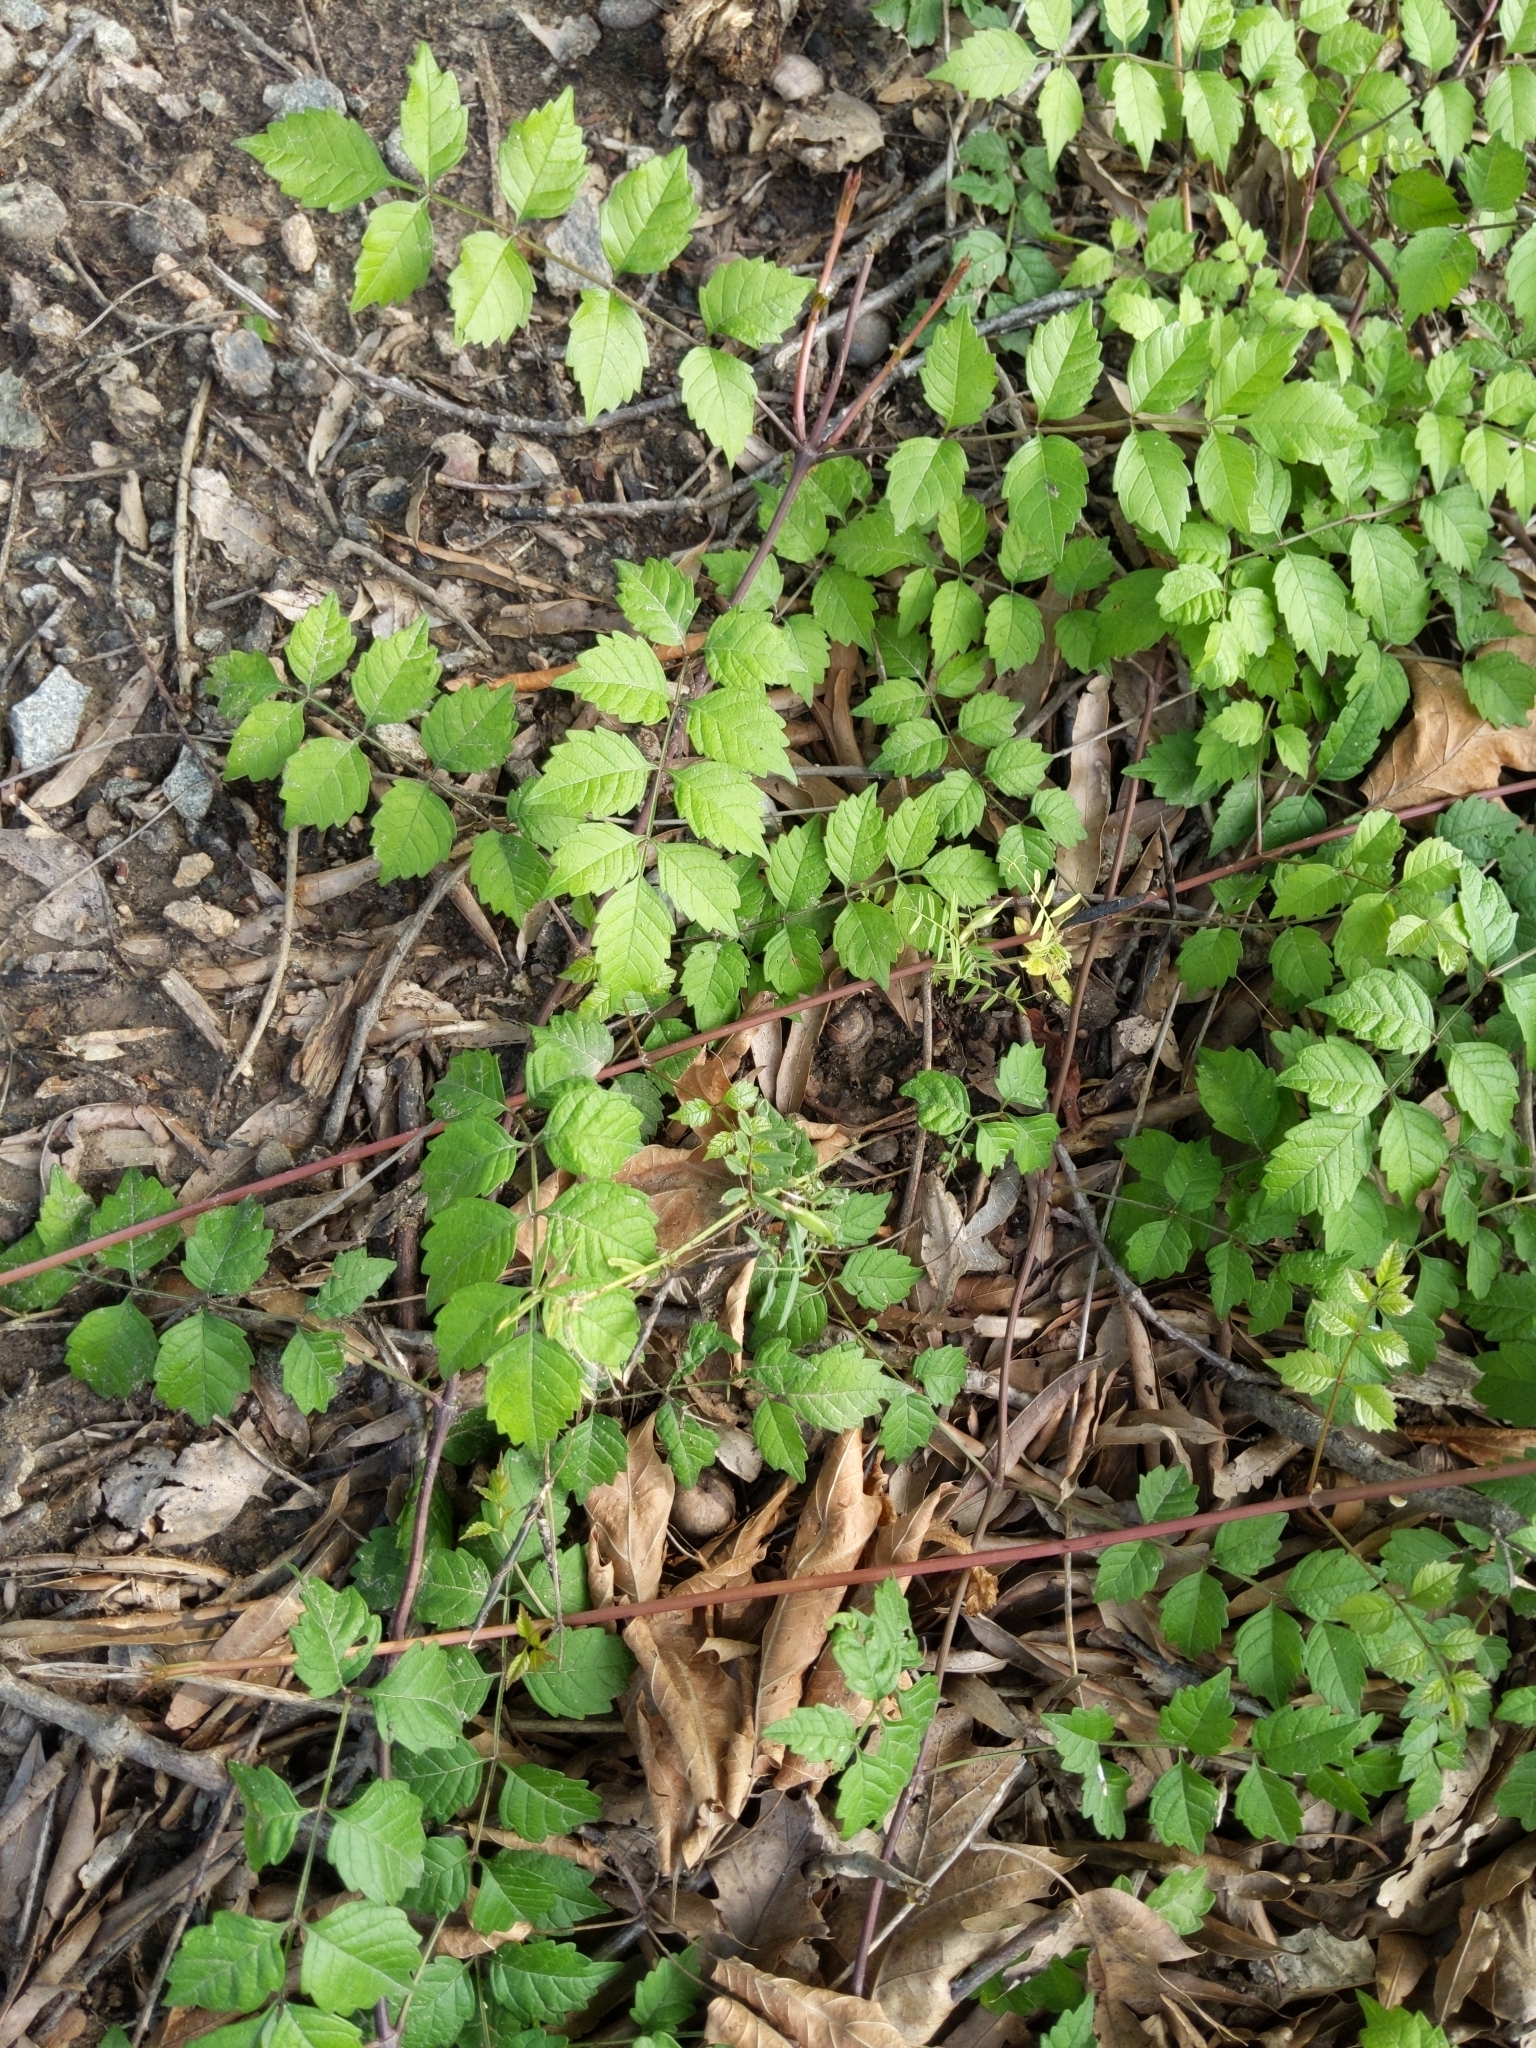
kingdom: Plantae
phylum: Tracheophyta
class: Magnoliopsida
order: Lamiales
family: Bignoniaceae
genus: Campsis
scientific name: Campsis radicans
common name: Trumpet-creeper
